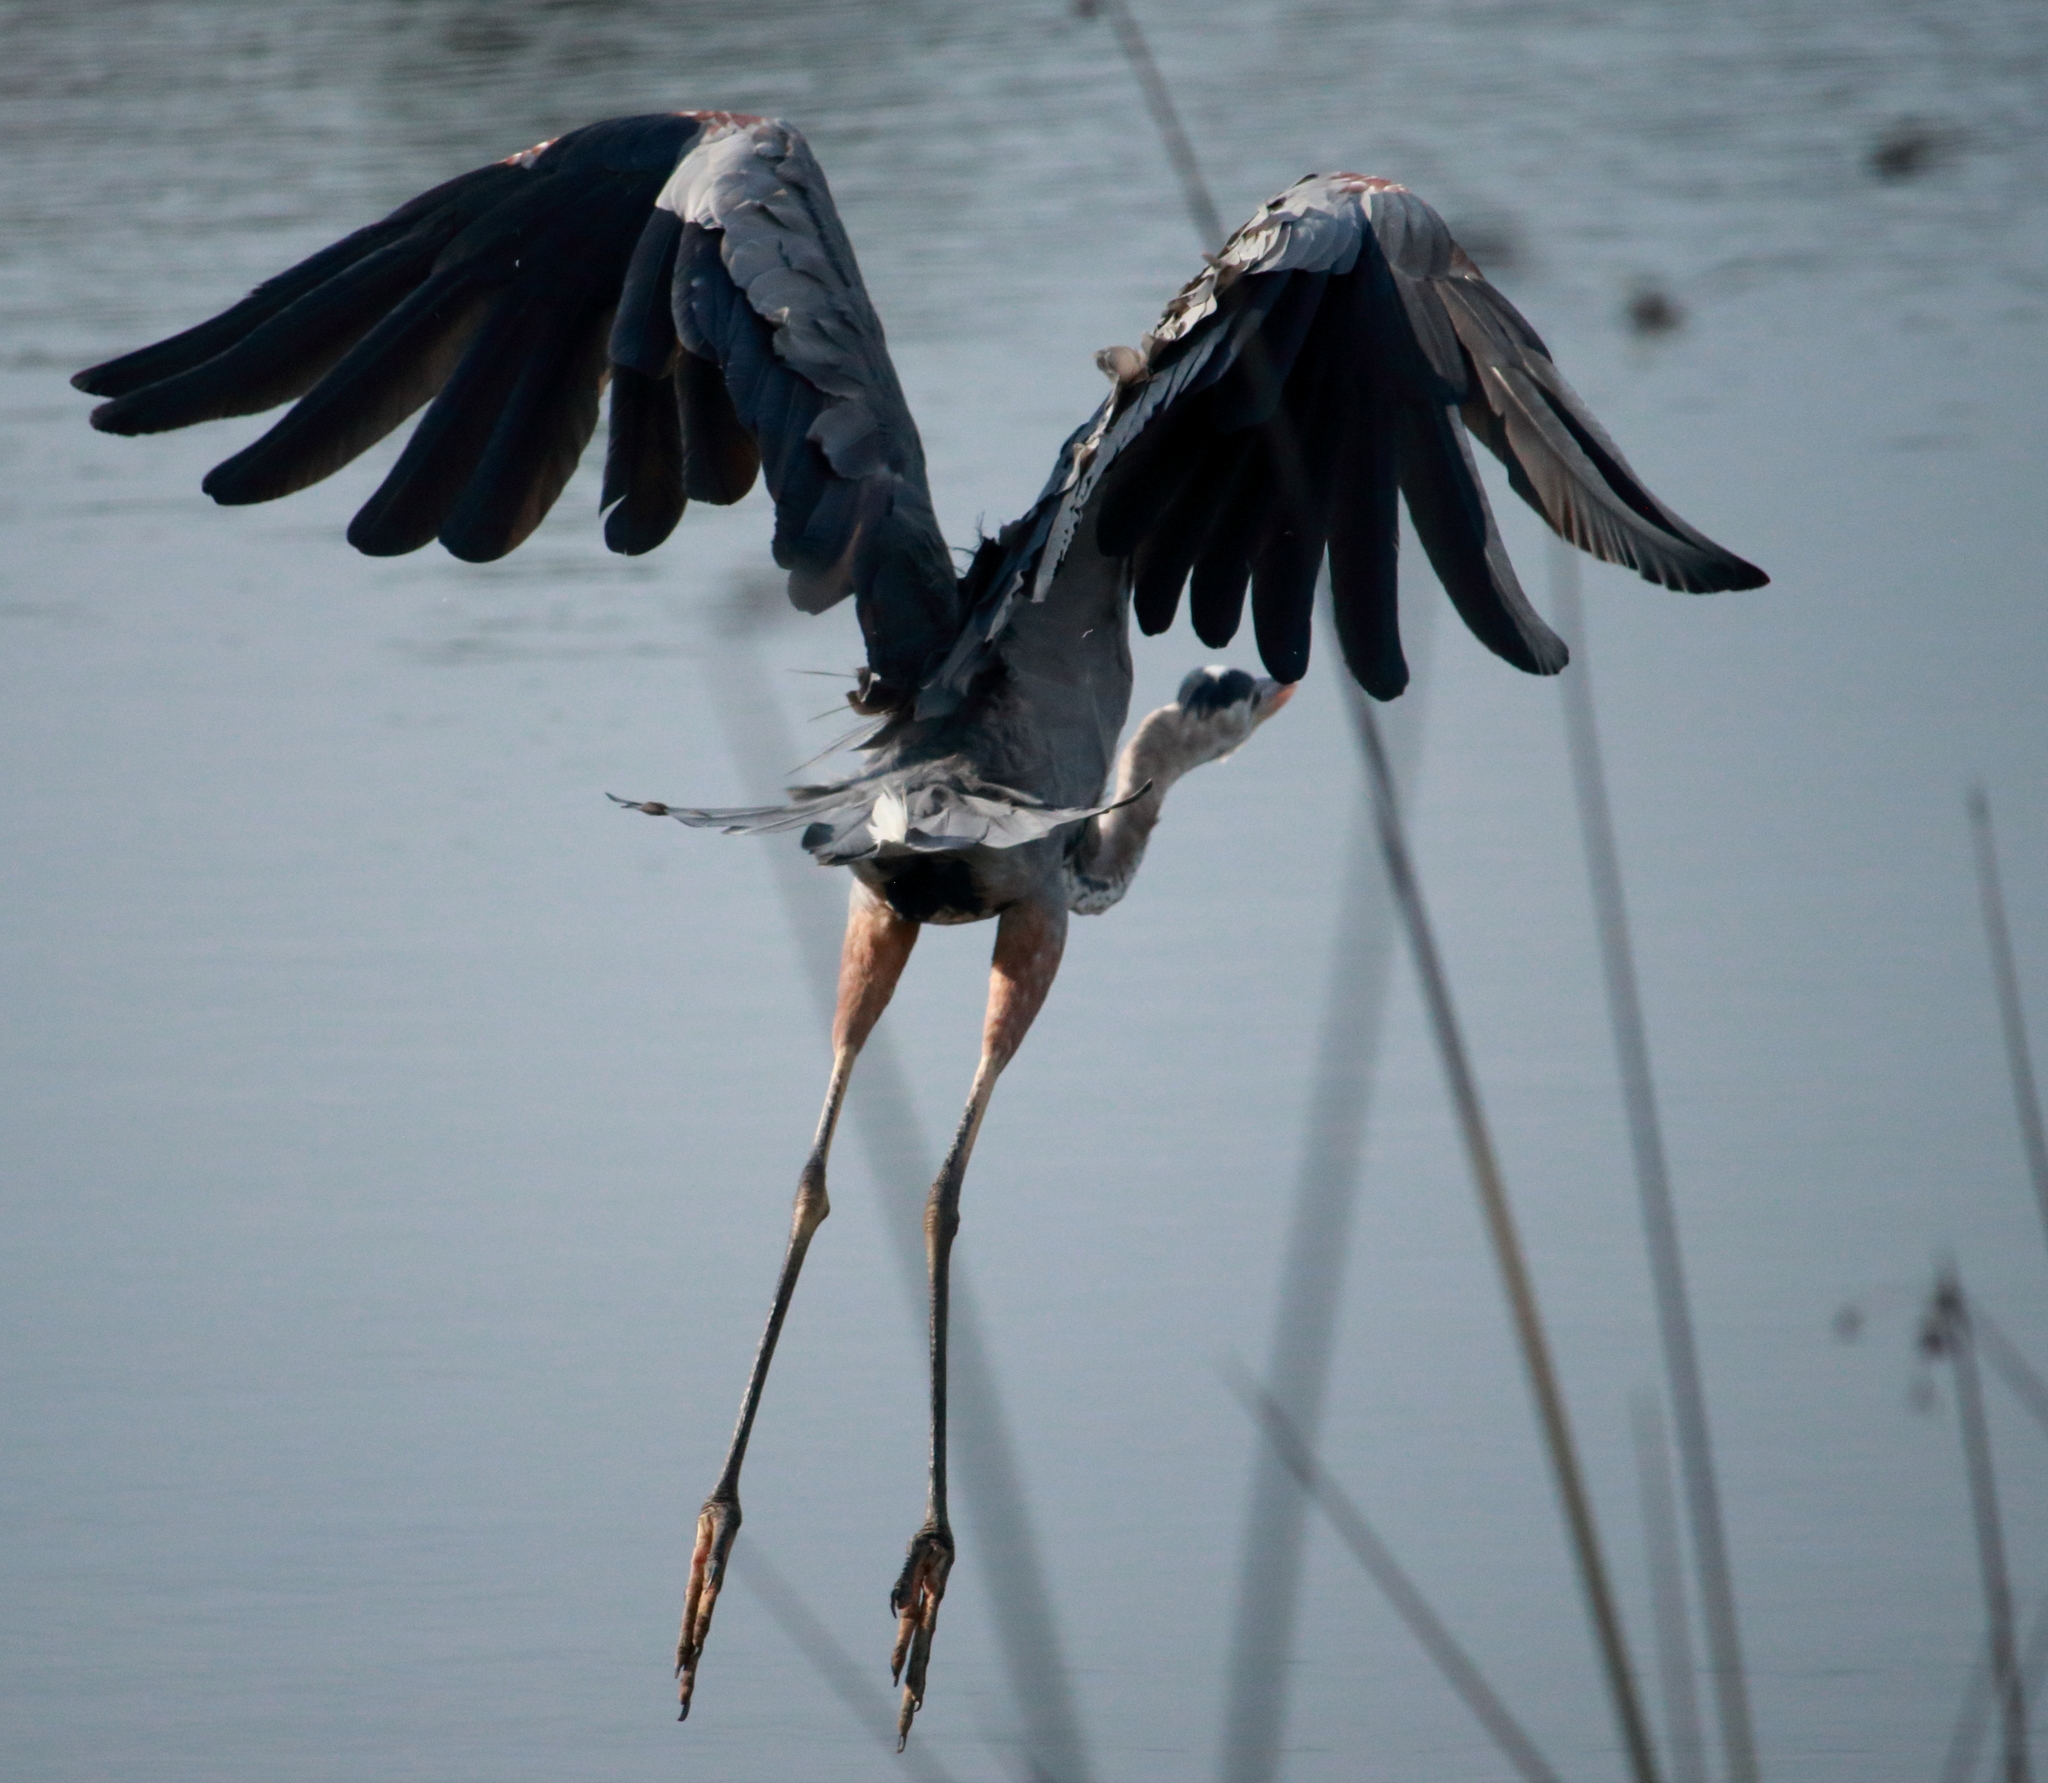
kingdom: Animalia
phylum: Chordata
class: Aves
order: Pelecaniformes
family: Ardeidae
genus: Ardea
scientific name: Ardea herodias
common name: Great blue heron
